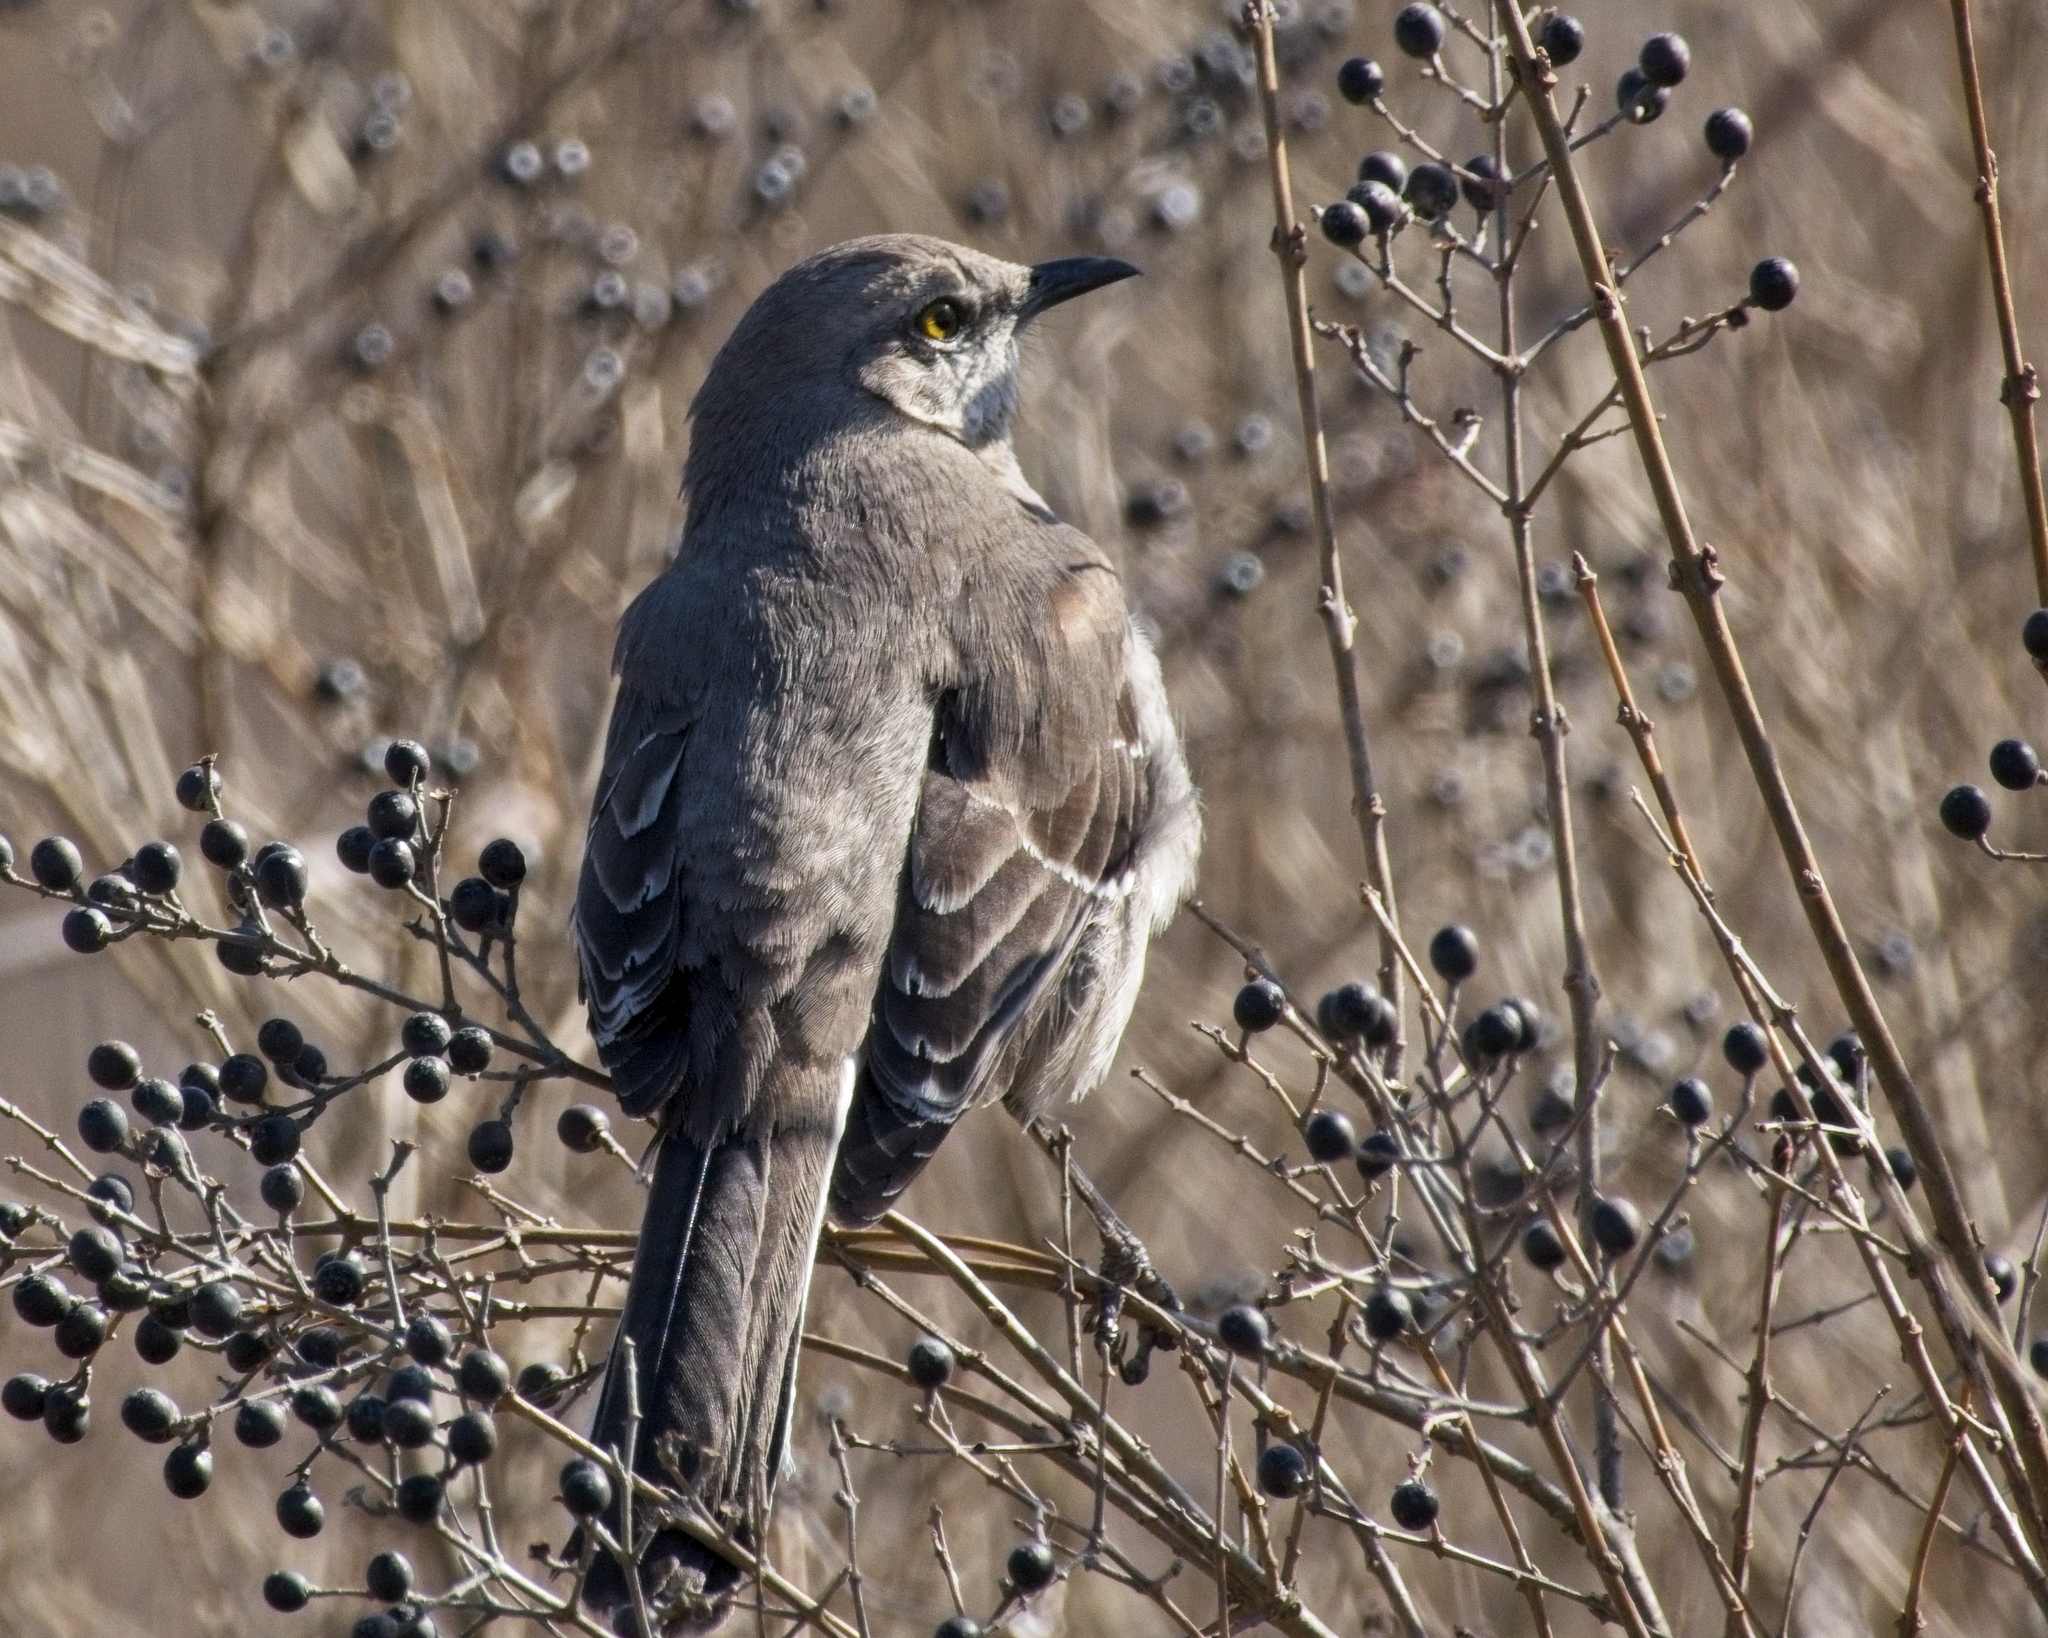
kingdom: Animalia
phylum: Chordata
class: Aves
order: Passeriformes
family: Mimidae
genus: Mimus
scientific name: Mimus polyglottos
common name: Northern mockingbird
